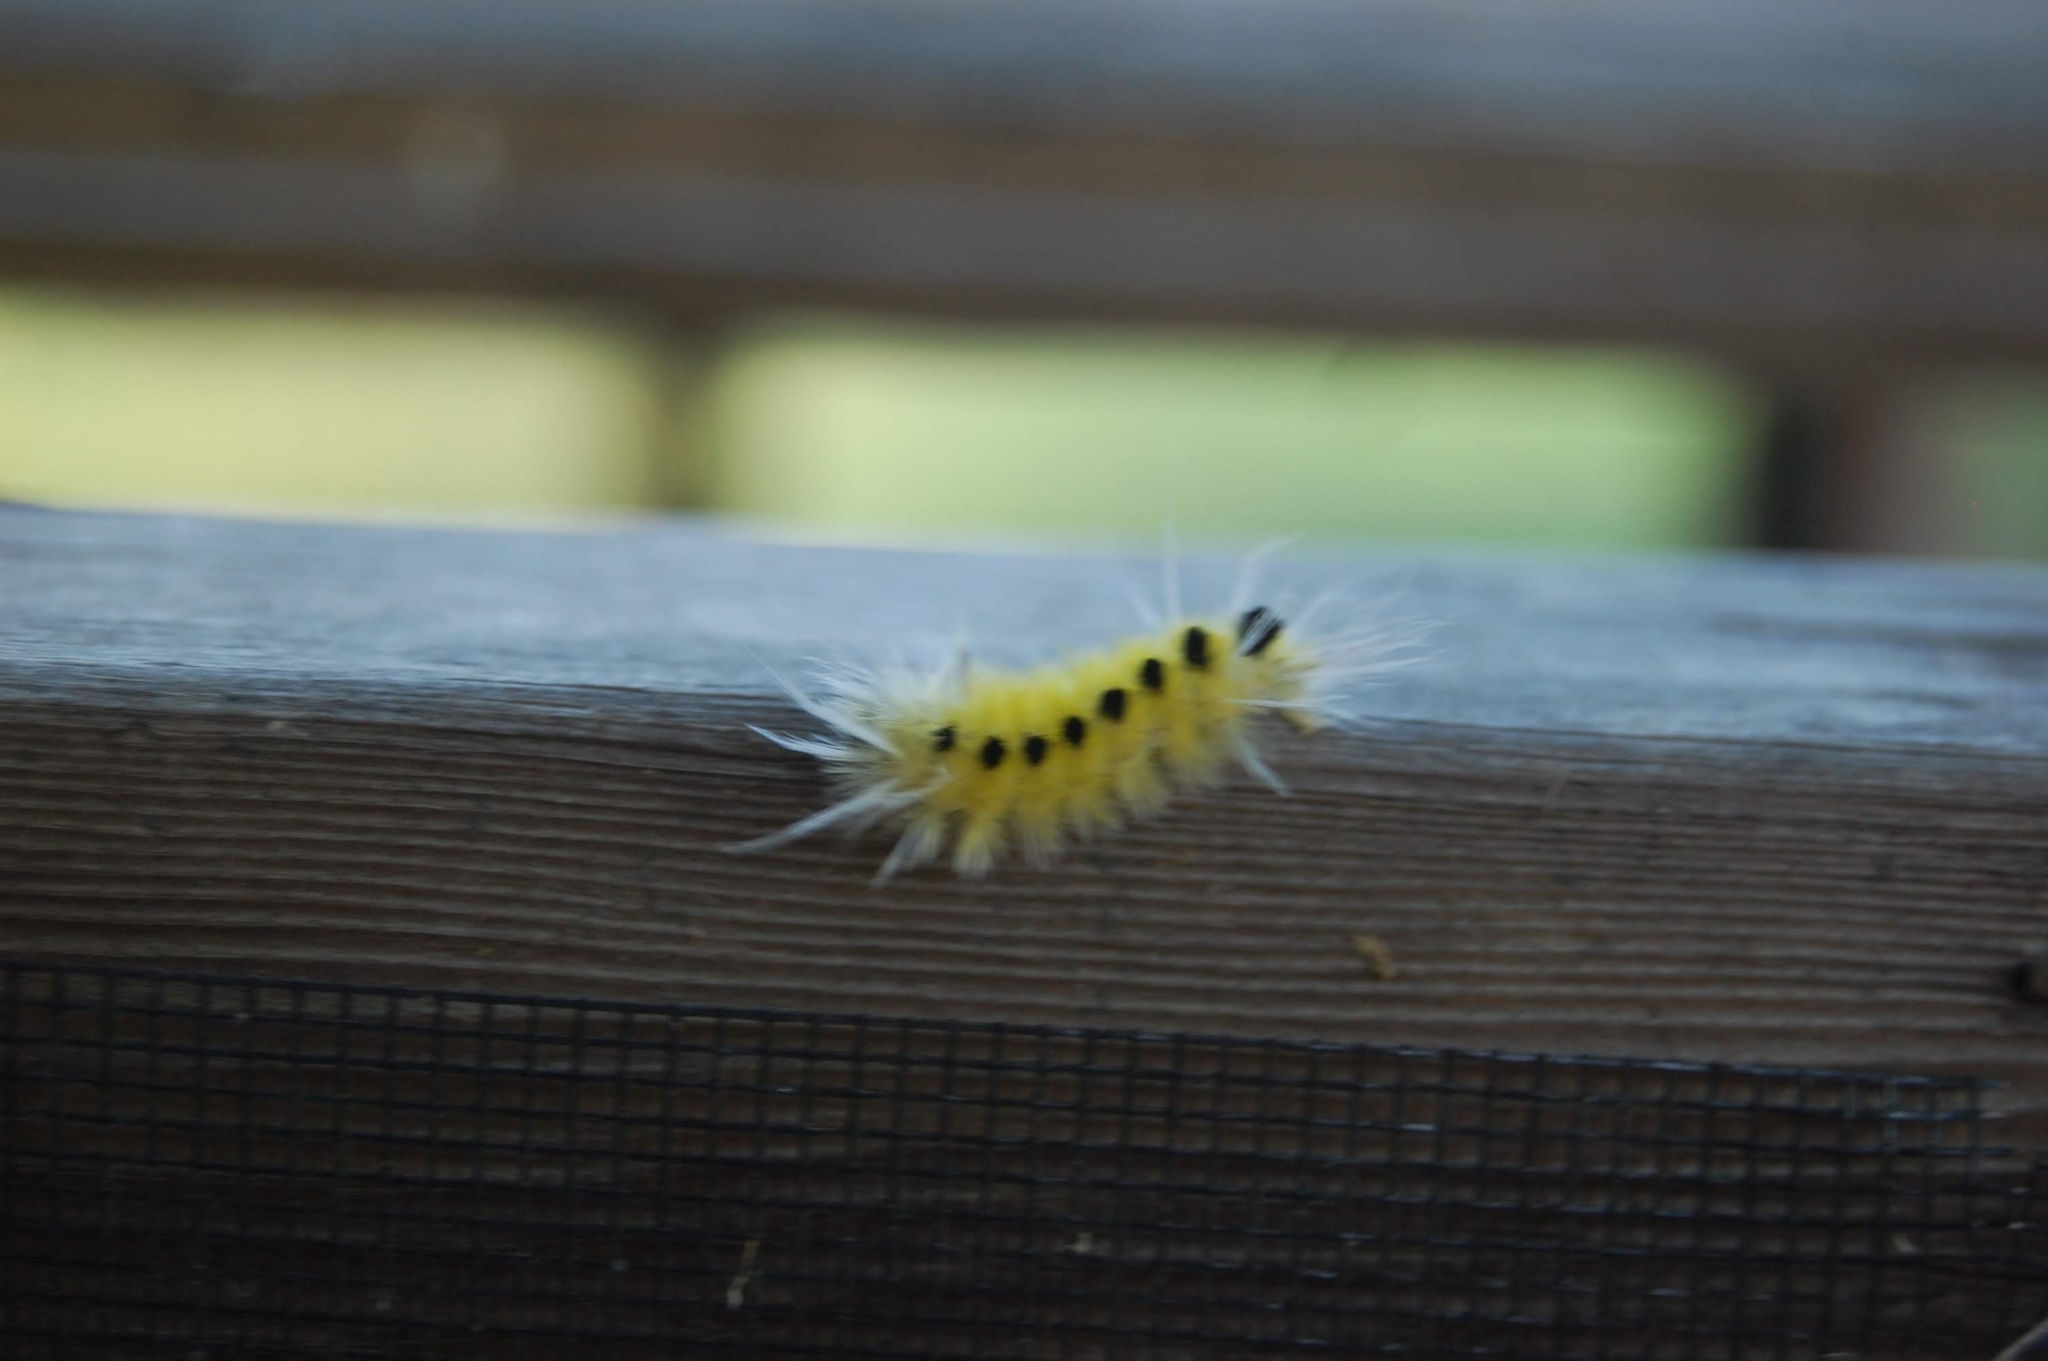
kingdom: Animalia
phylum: Arthropoda
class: Insecta
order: Lepidoptera
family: Erebidae
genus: Lophocampa
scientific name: Lophocampa maculata
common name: Spotted tussock moth
